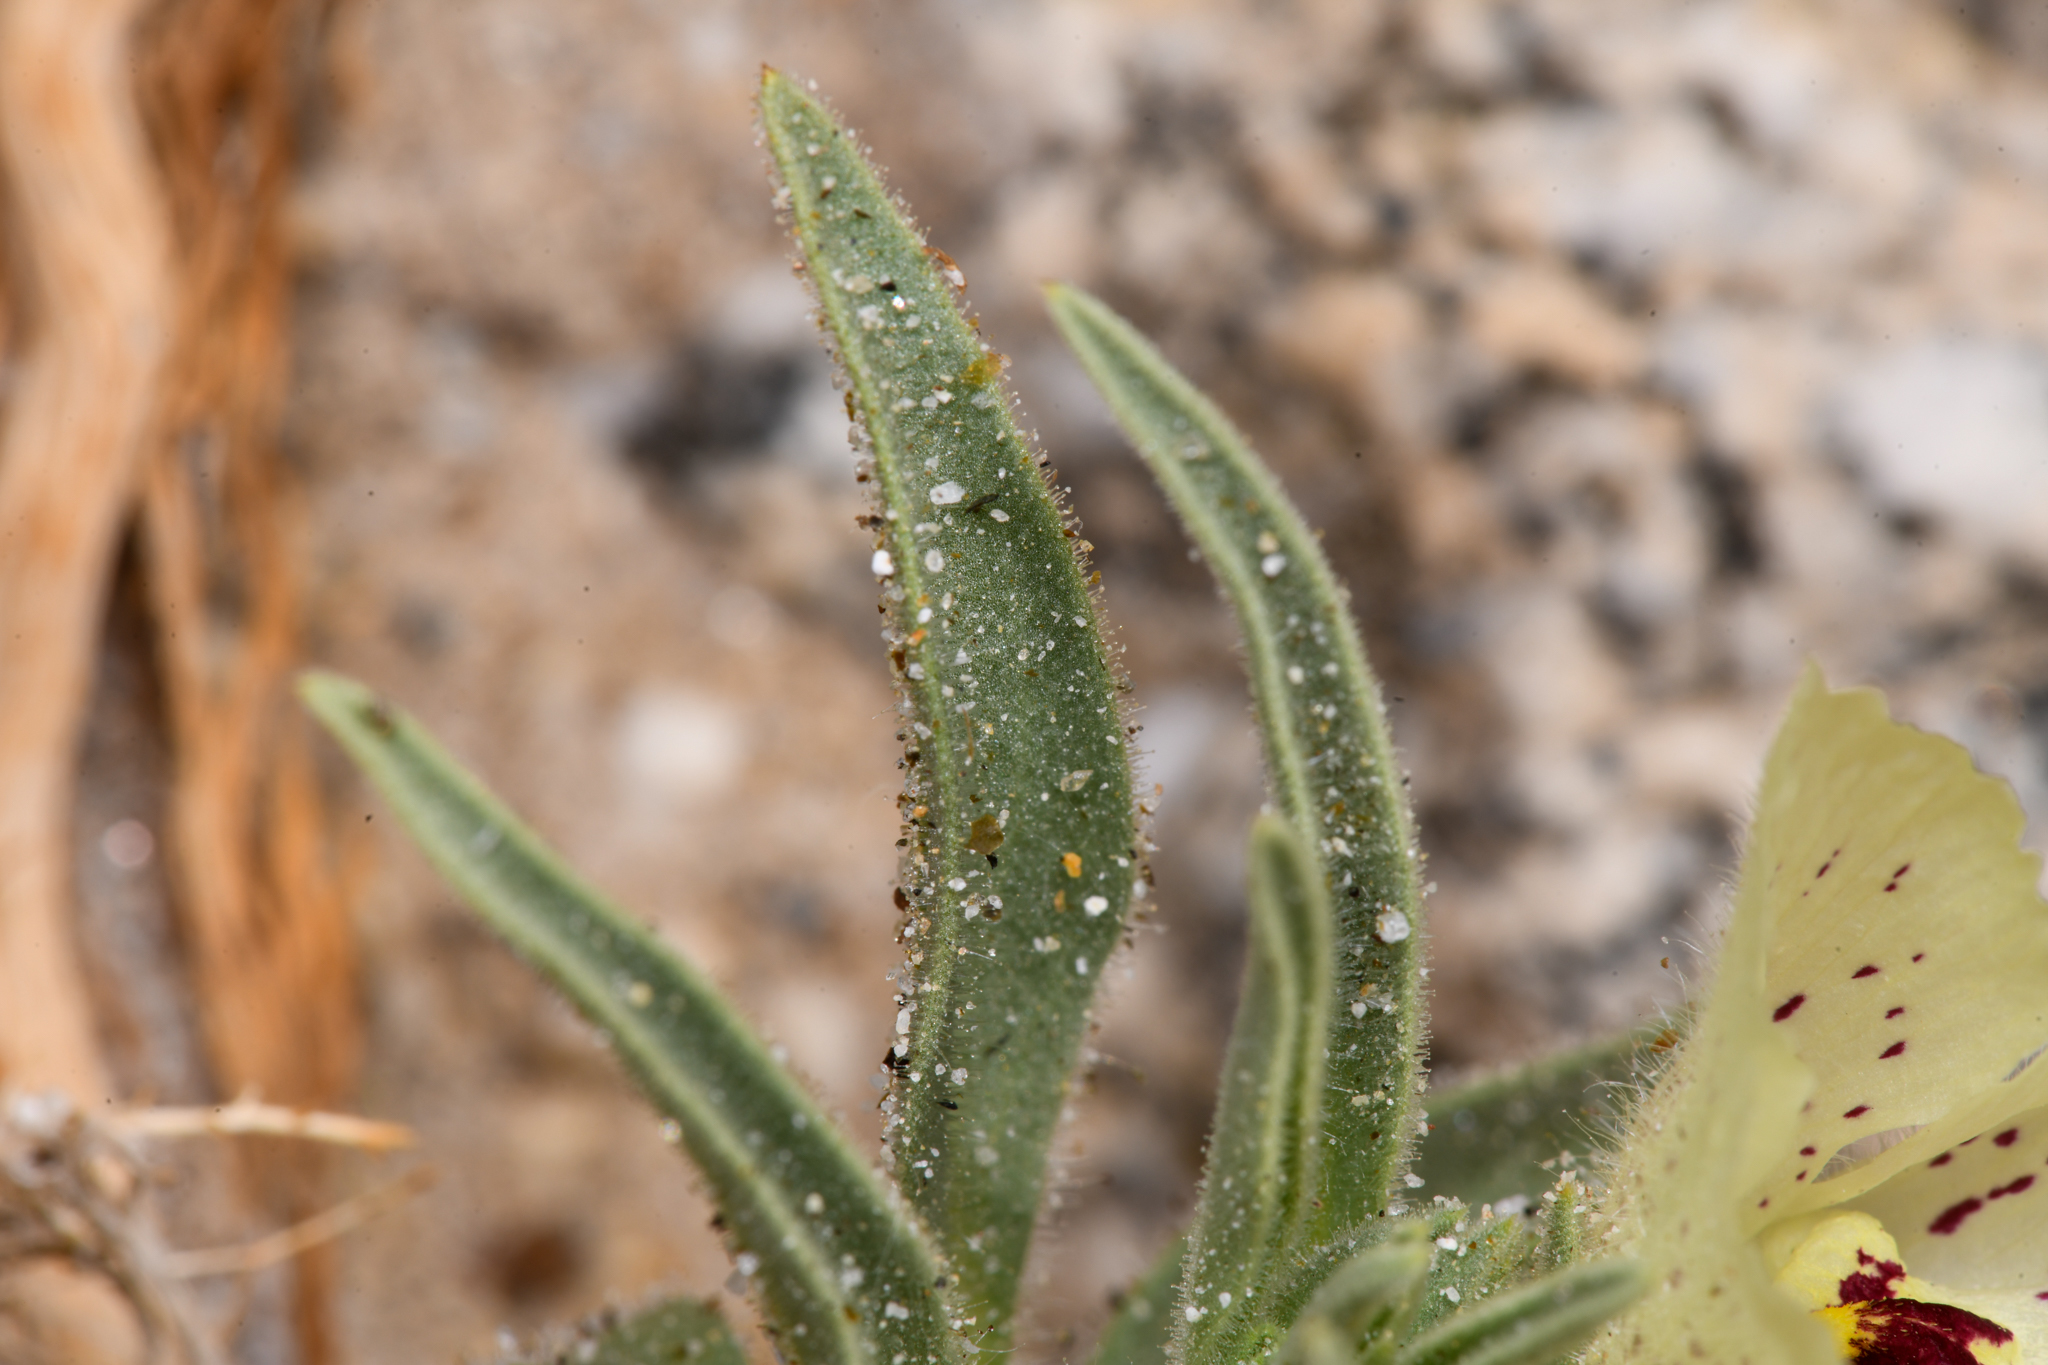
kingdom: Plantae
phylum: Tracheophyta
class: Magnoliopsida
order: Lamiales
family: Plantaginaceae
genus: Mohavea
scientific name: Mohavea confertiflora
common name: Ghost flower
